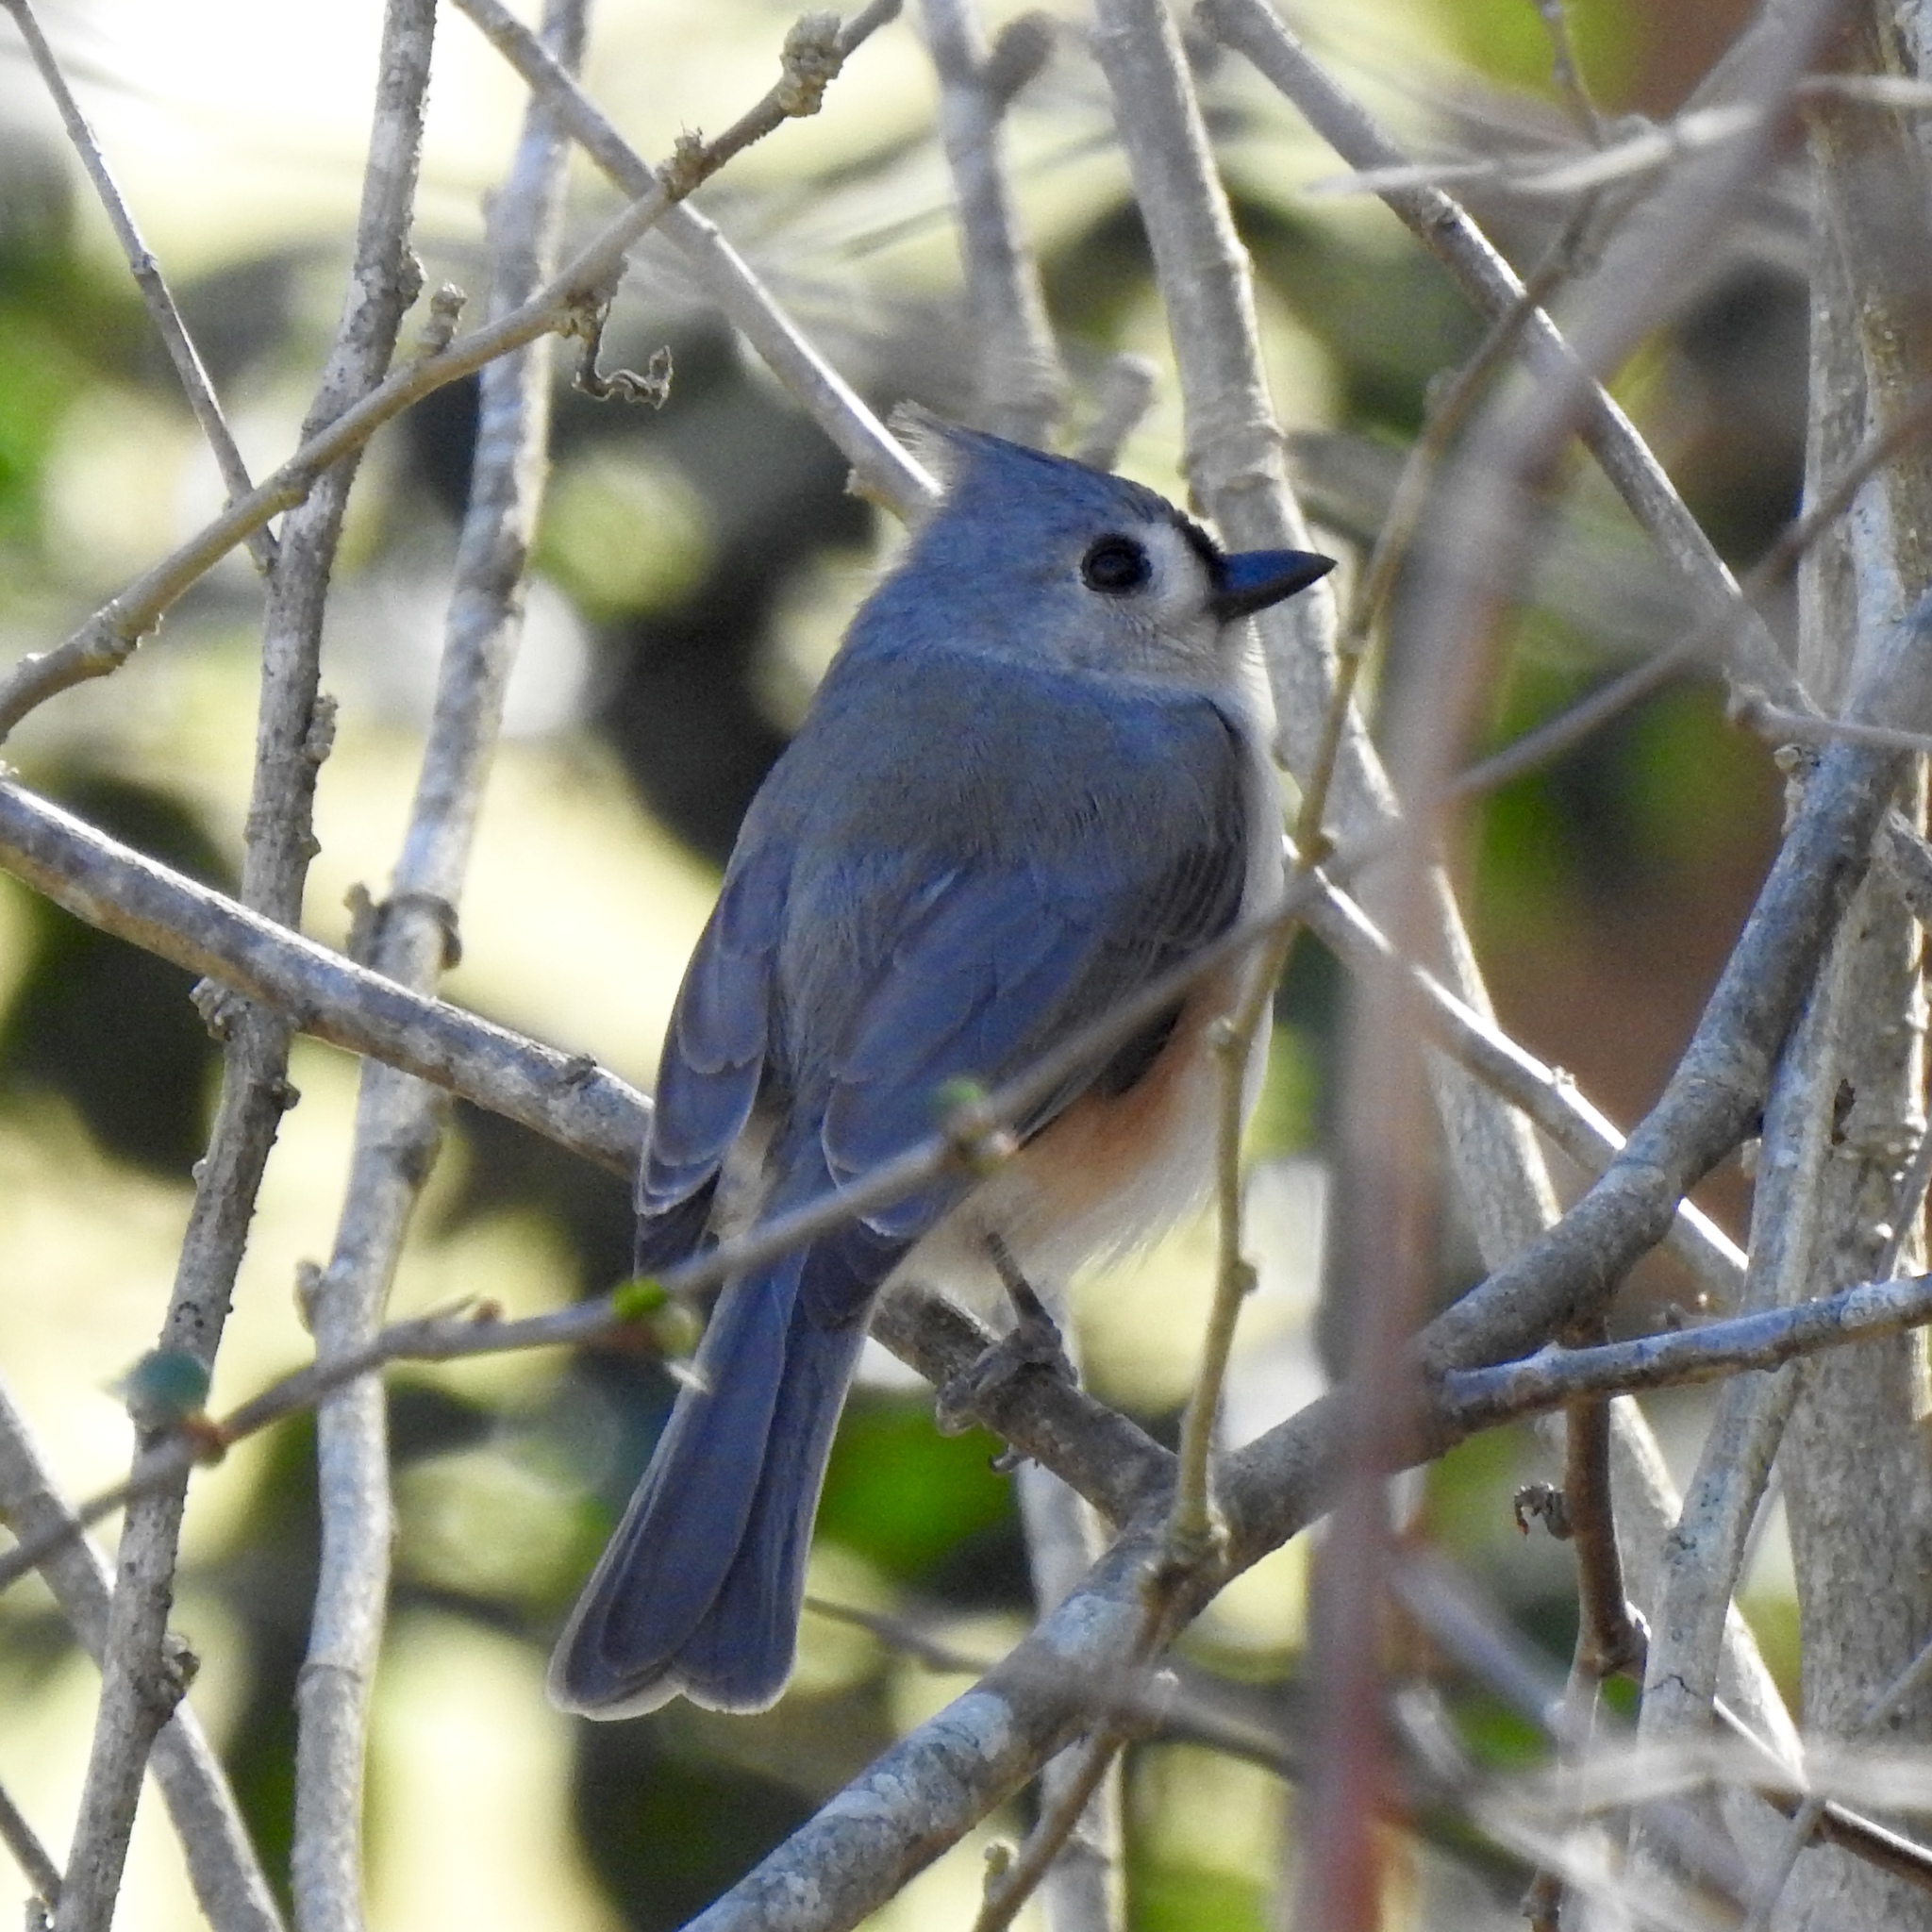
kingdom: Animalia
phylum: Chordata
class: Aves
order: Passeriformes
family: Paridae
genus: Baeolophus
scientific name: Baeolophus bicolor
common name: Tufted titmouse
